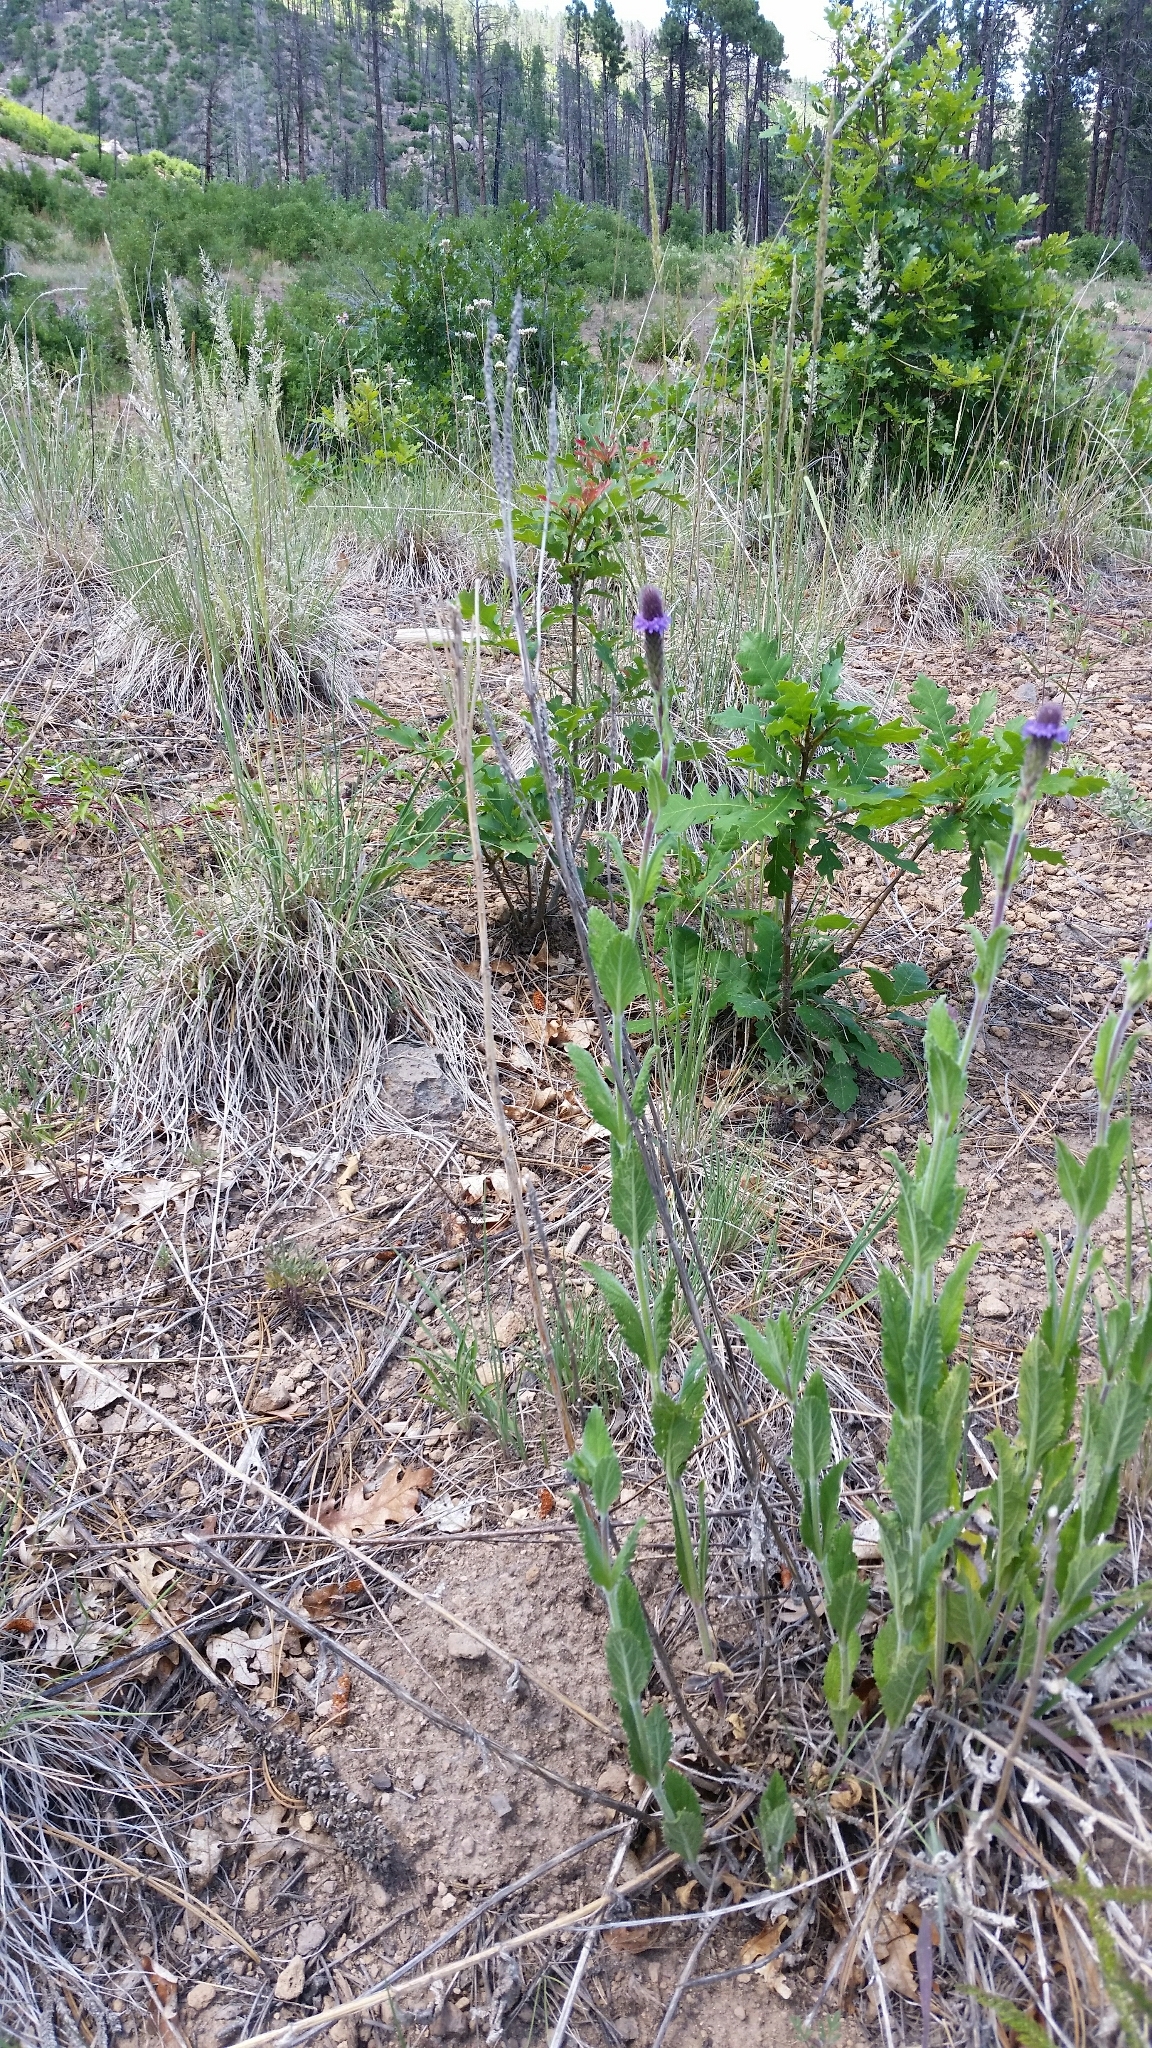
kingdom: Plantae
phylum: Tracheophyta
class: Magnoliopsida
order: Lamiales
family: Verbenaceae
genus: Verbena
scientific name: Verbena macdougalii
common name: New mexico vervain
